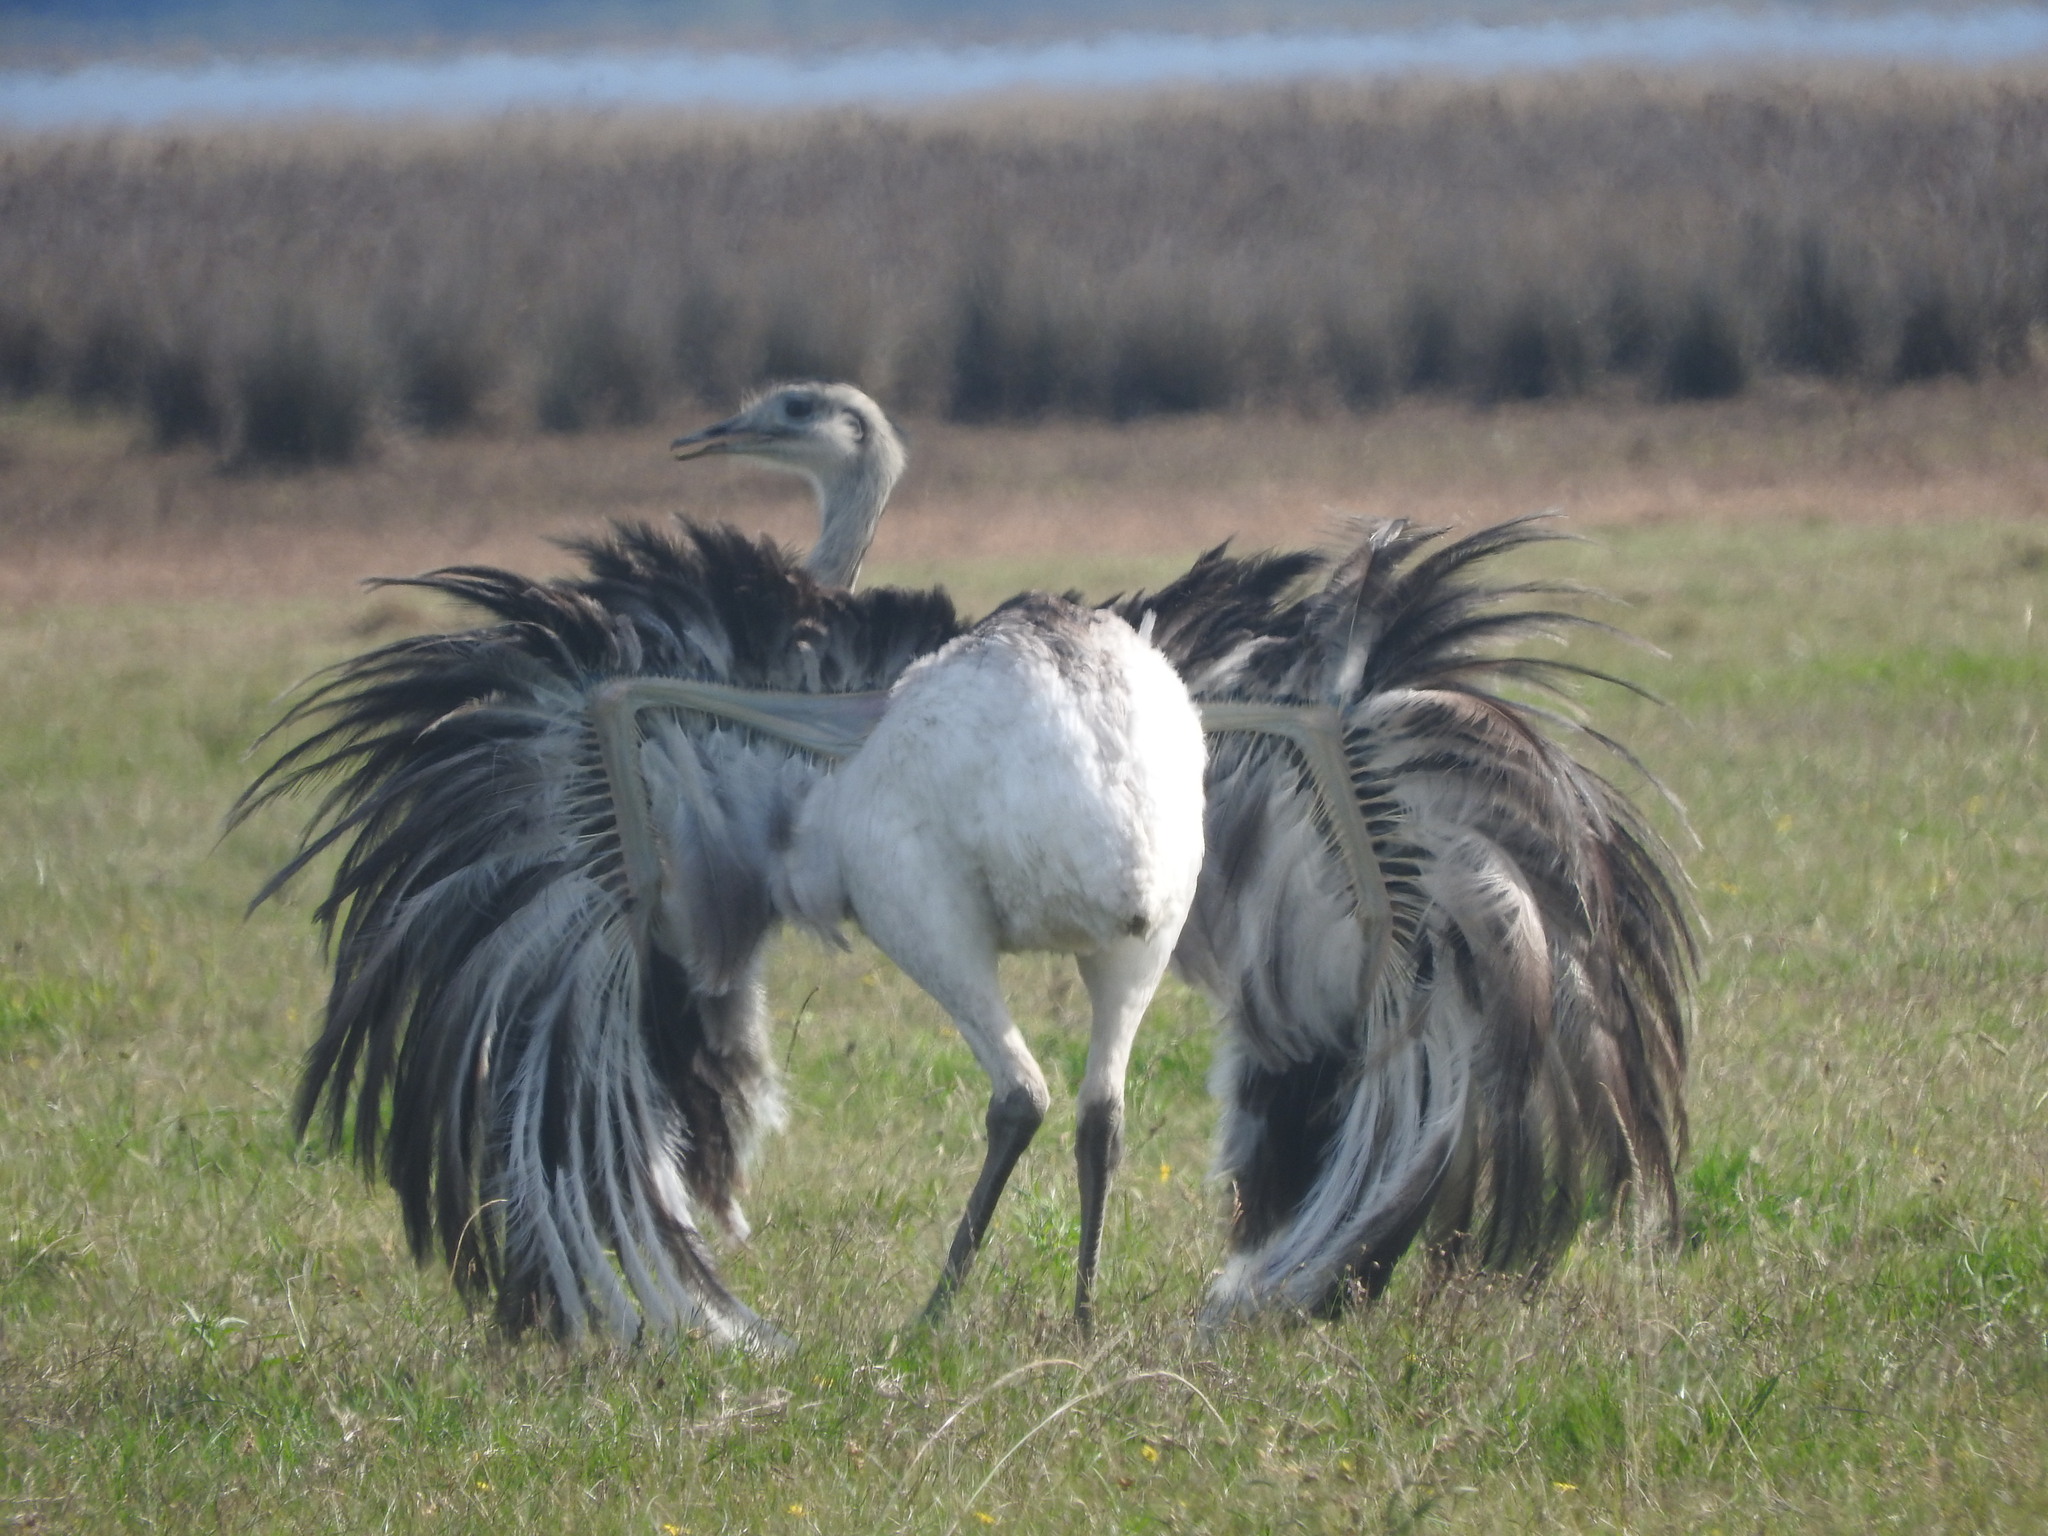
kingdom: Animalia
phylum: Chordata
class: Aves
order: Rheiformes
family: Rheidae
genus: Rhea
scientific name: Rhea americana
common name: Greater rhea
